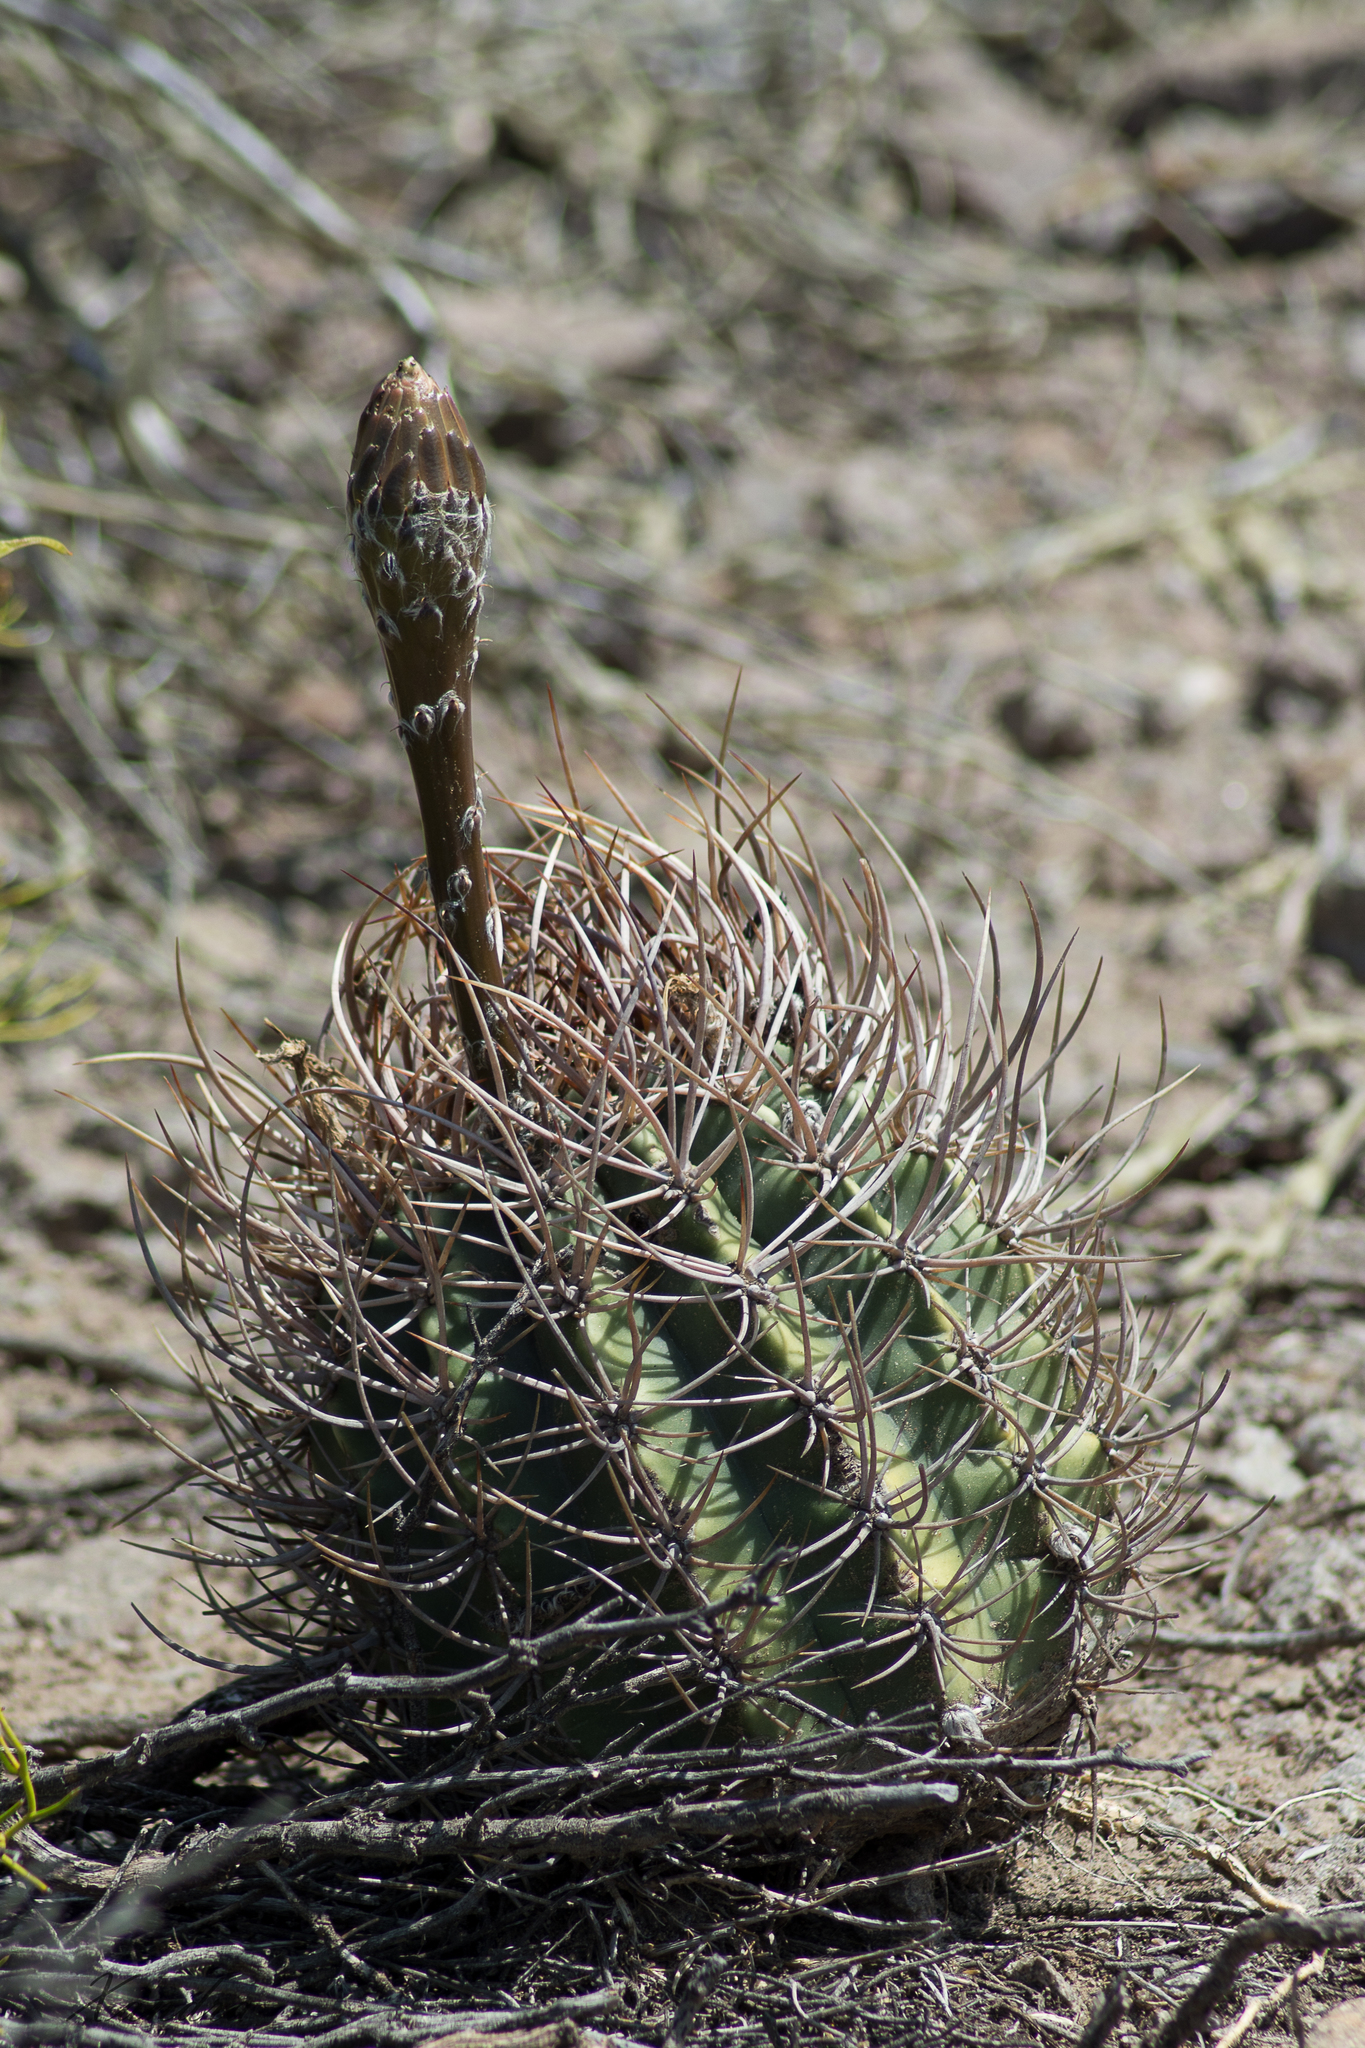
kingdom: Plantae
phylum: Tracheophyta
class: Magnoliopsida
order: Caryophyllales
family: Cactaceae
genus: Acanthocalycium
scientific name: Acanthocalycium leucanthum
